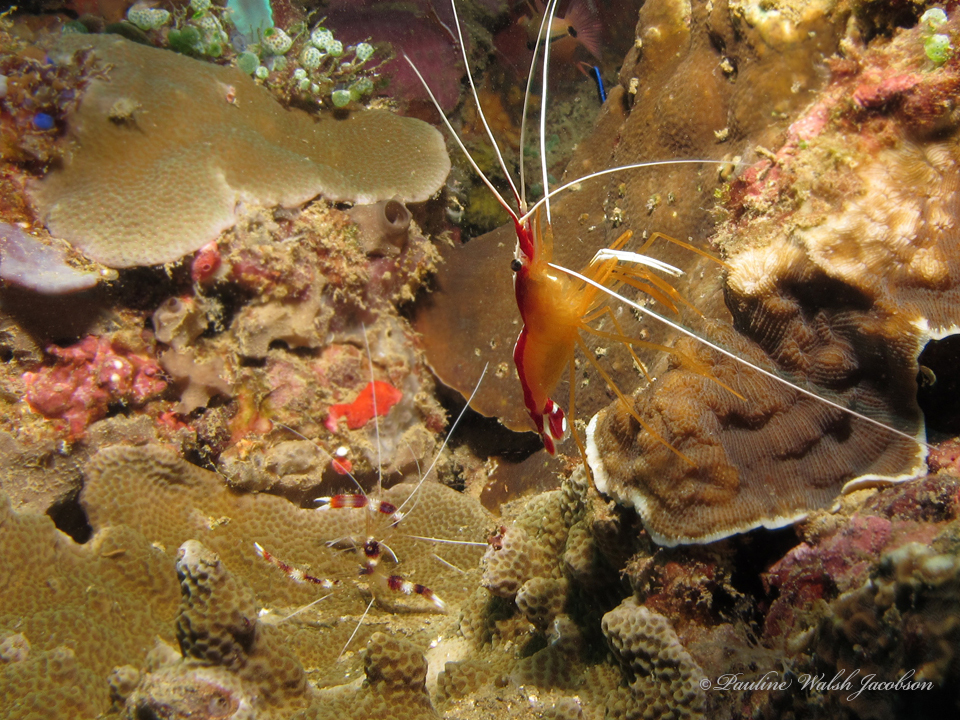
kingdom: Animalia
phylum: Arthropoda
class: Malacostraca
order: Decapoda
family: Lysmatidae
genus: Lysmata
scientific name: Lysmata amboinensis
